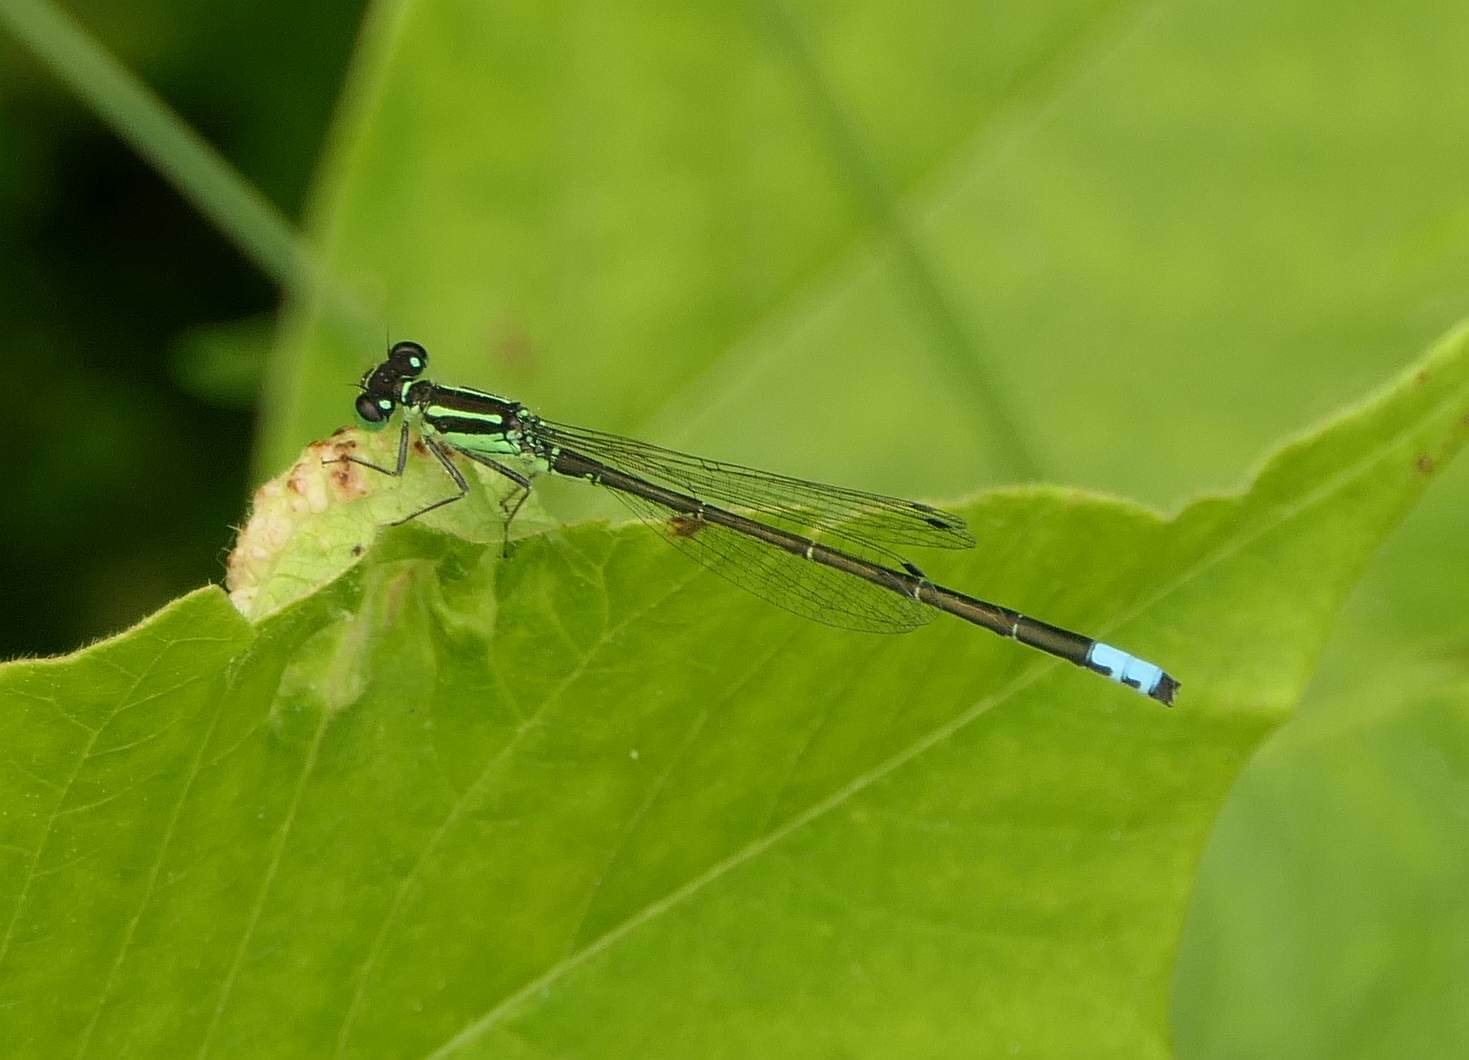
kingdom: Animalia
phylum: Arthropoda
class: Insecta
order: Odonata
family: Coenagrionidae
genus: Ischnura
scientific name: Ischnura verticalis
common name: Eastern forktail
